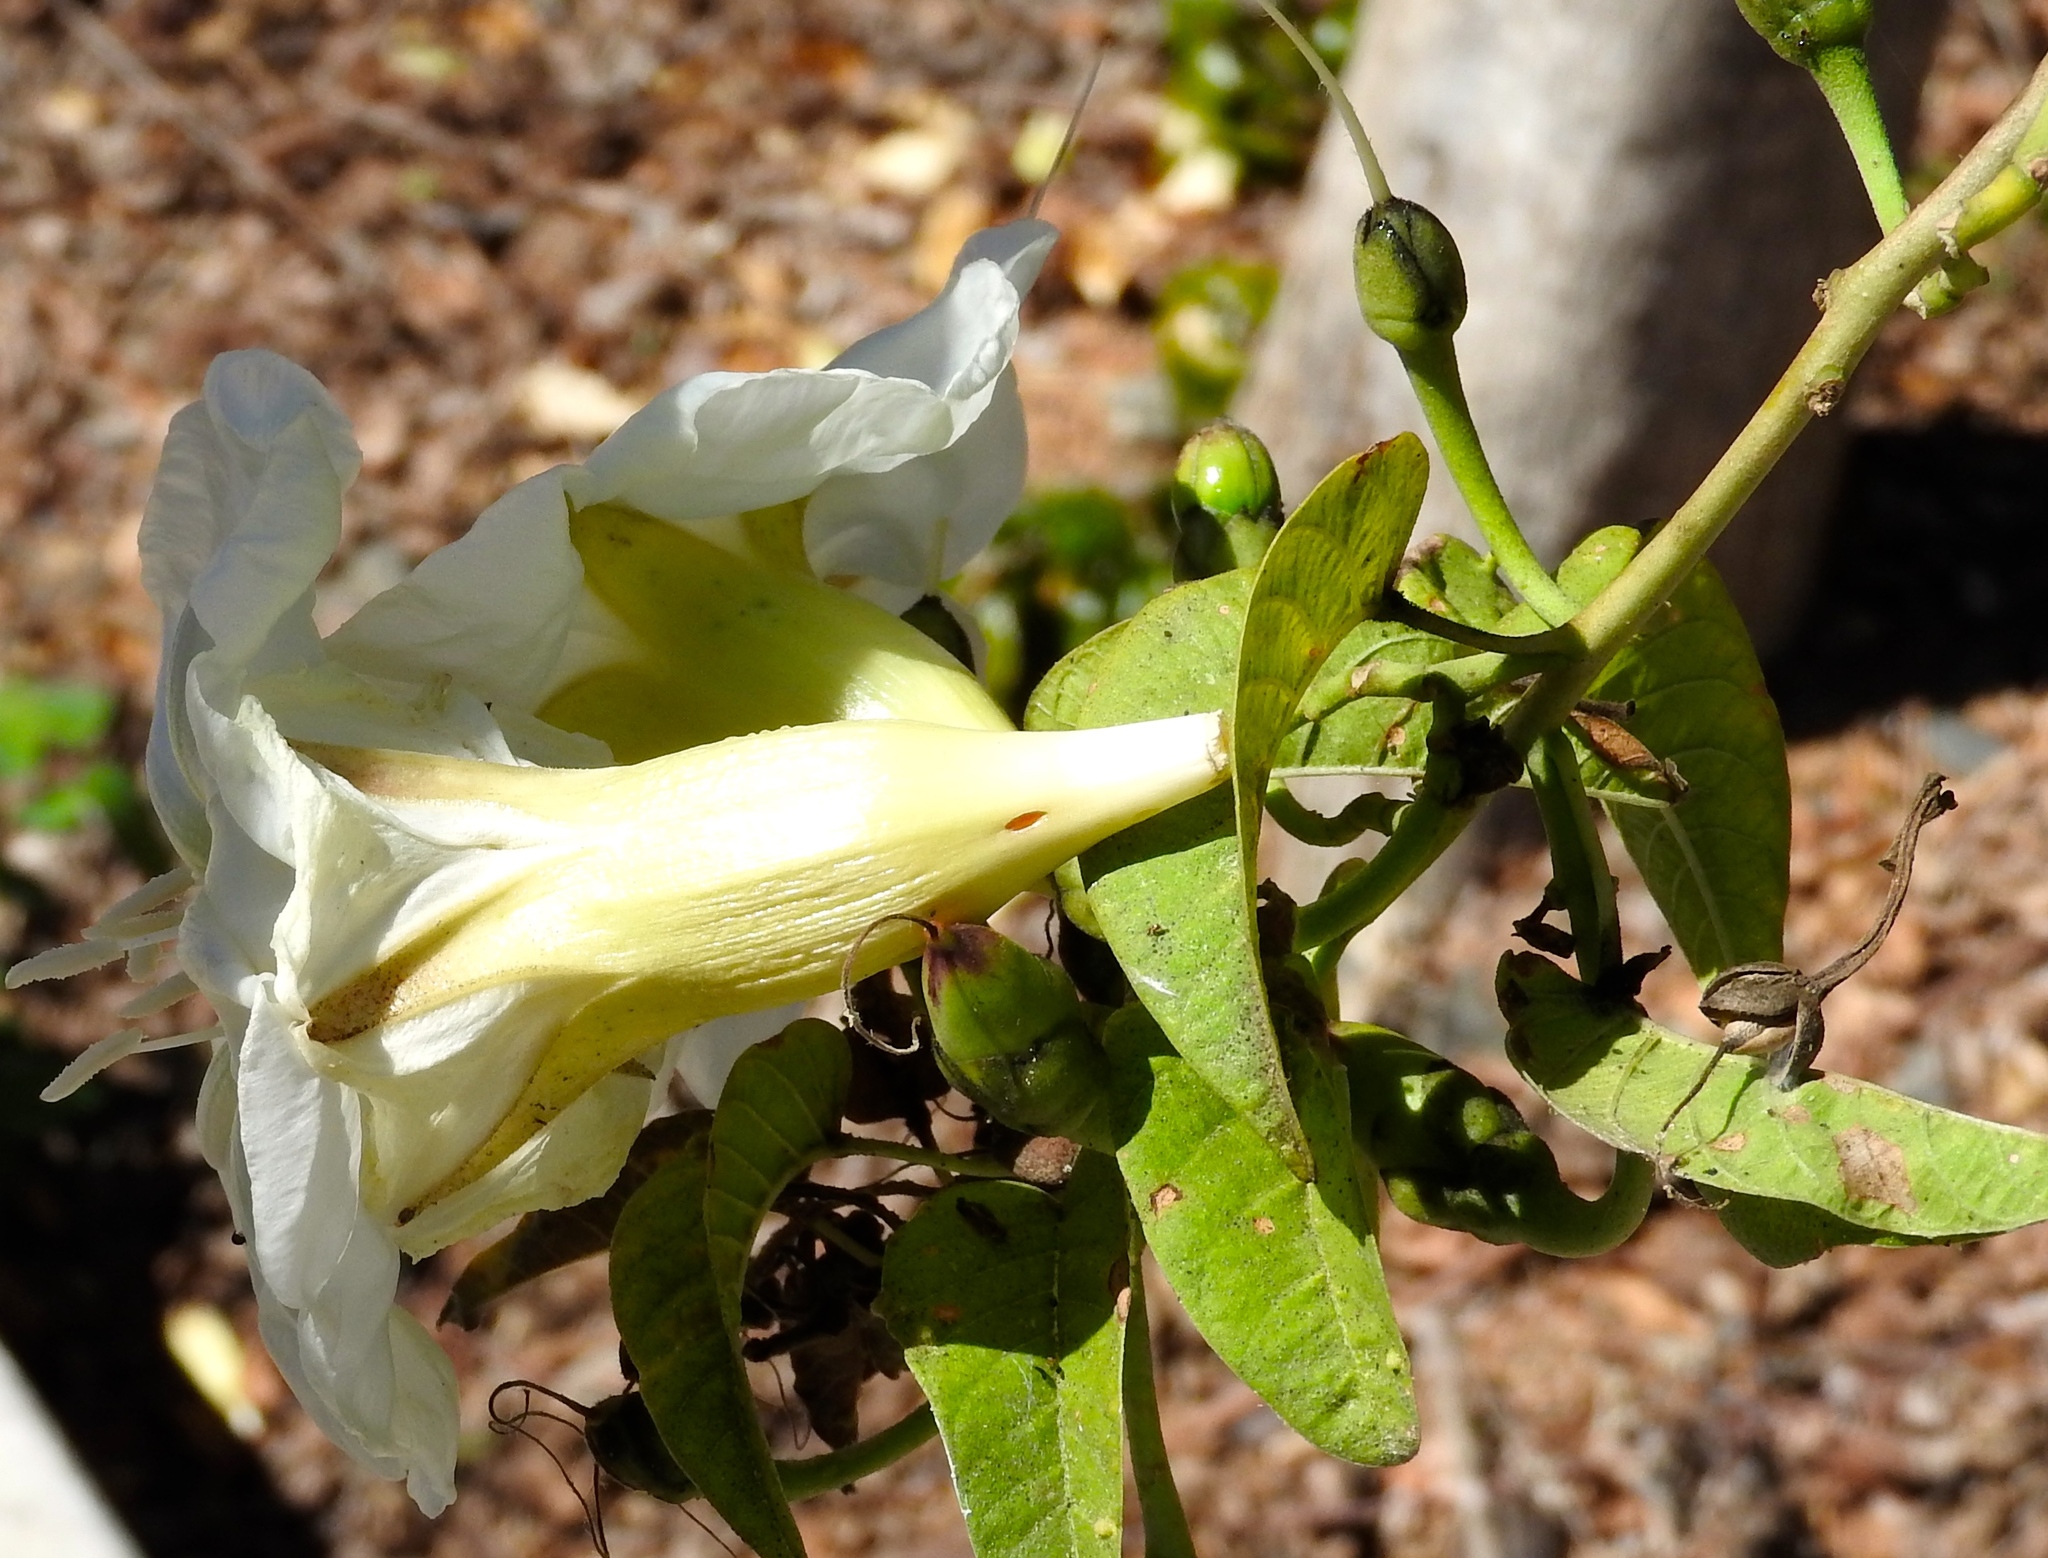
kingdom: Plantae
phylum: Tracheophyta
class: Magnoliopsida
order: Solanales
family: Convolvulaceae
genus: Ipomoea
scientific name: Ipomoea arborescens
